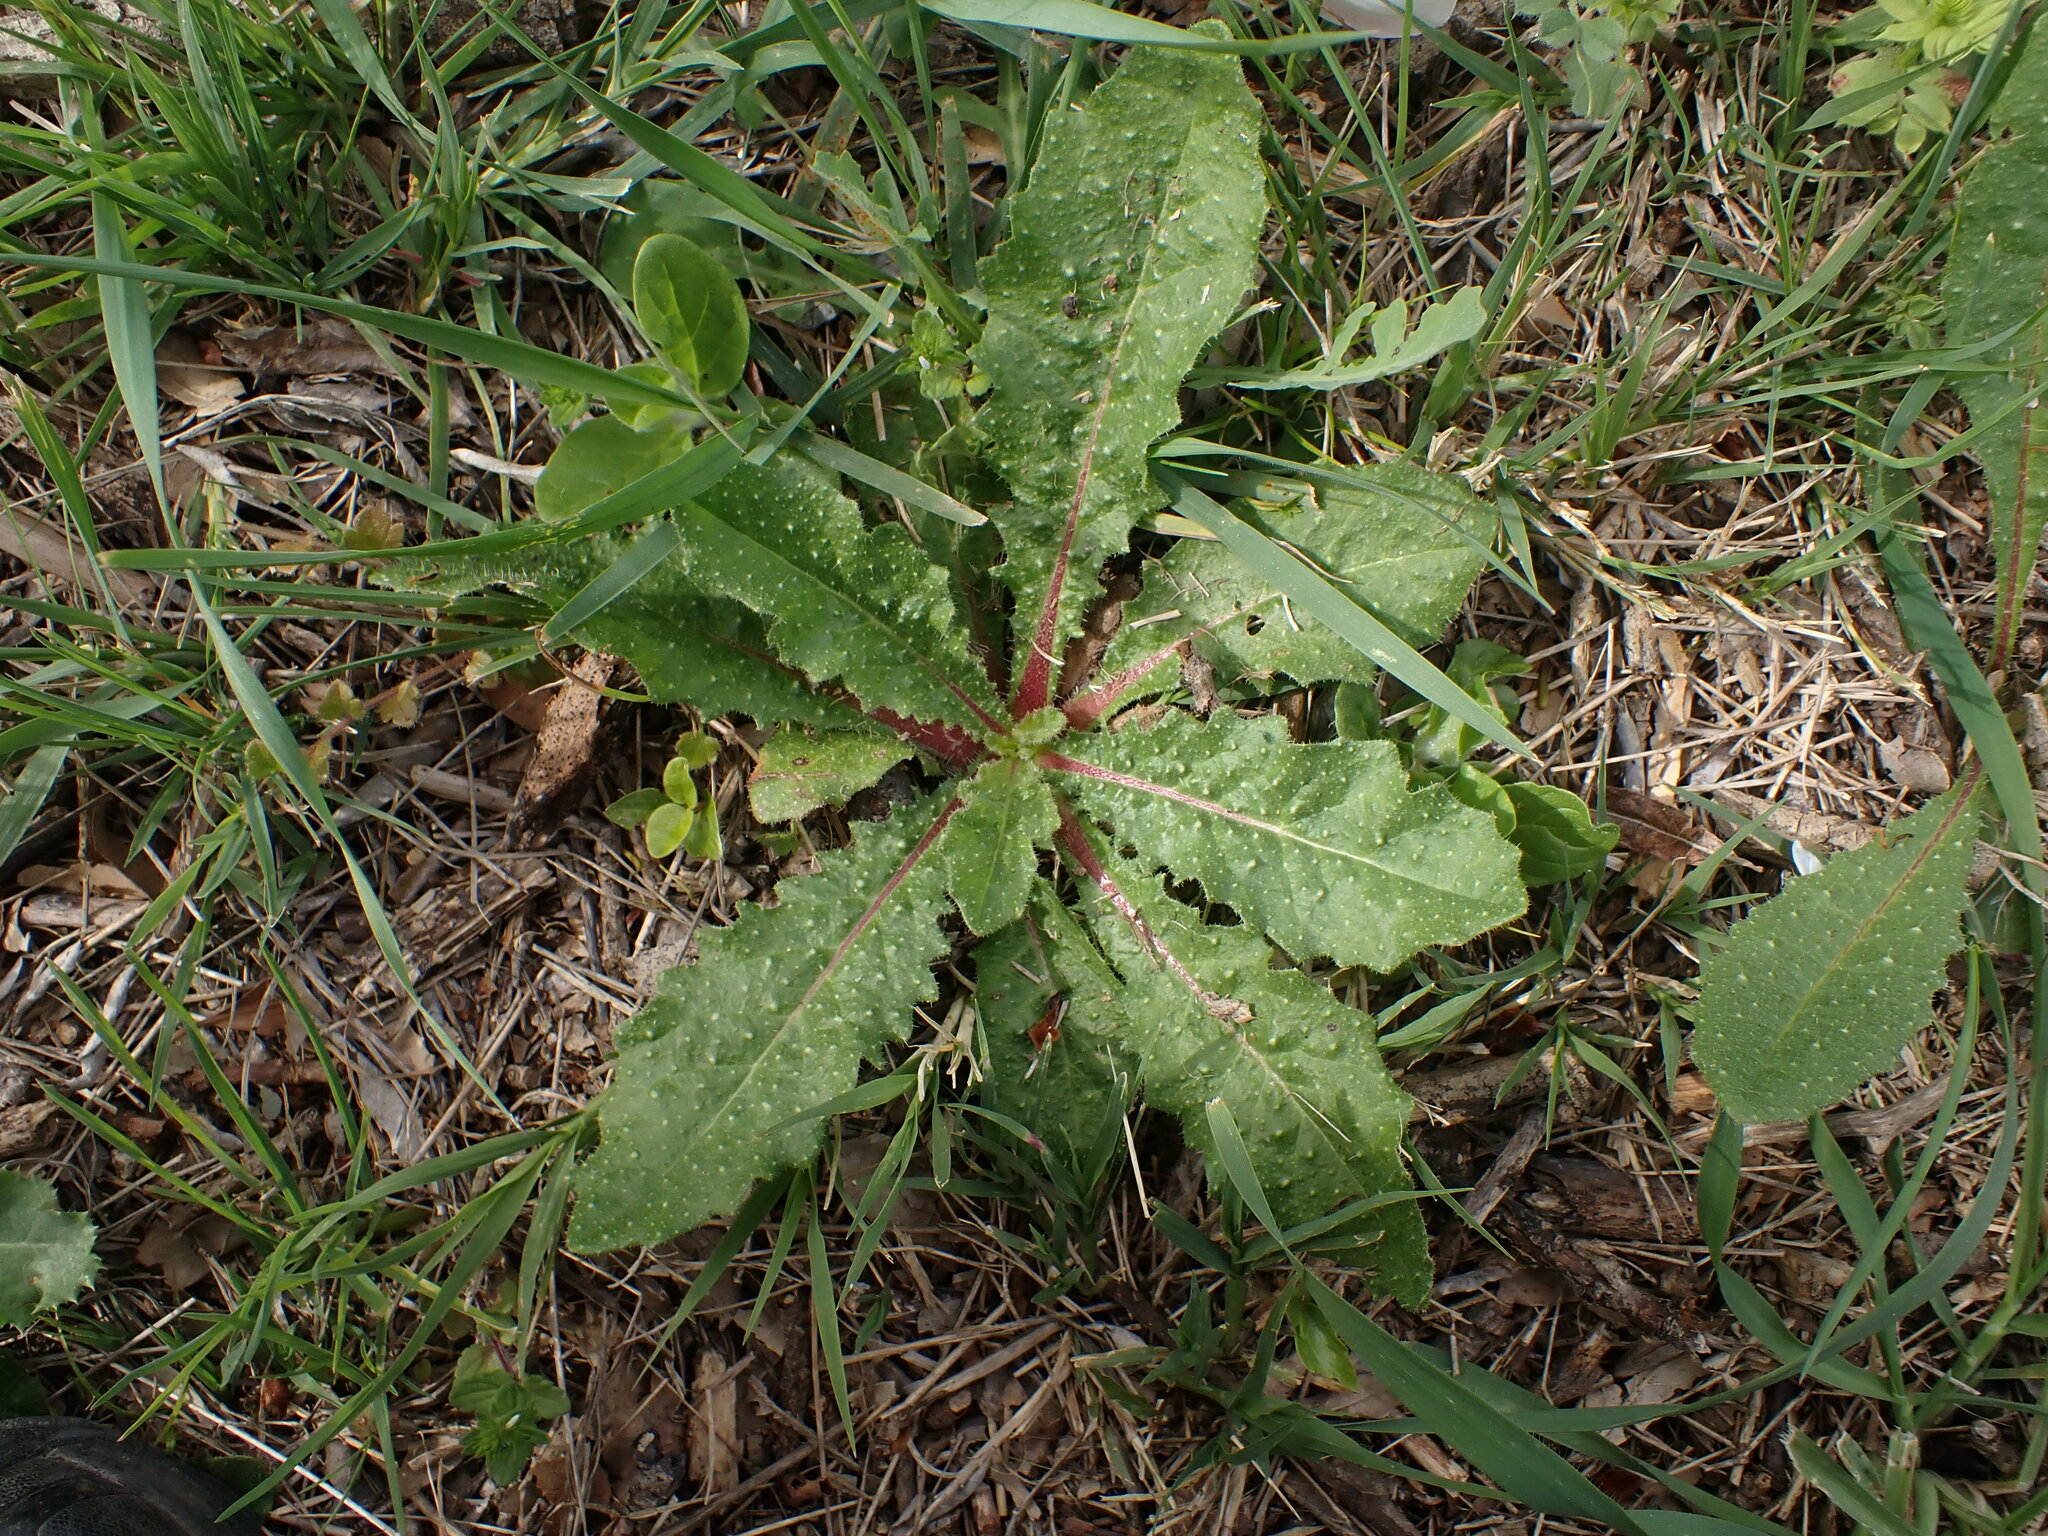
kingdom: Plantae
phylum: Tracheophyta
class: Magnoliopsida
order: Asterales
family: Asteraceae
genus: Helminthotheca
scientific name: Helminthotheca echioides
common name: Ox-tongue
